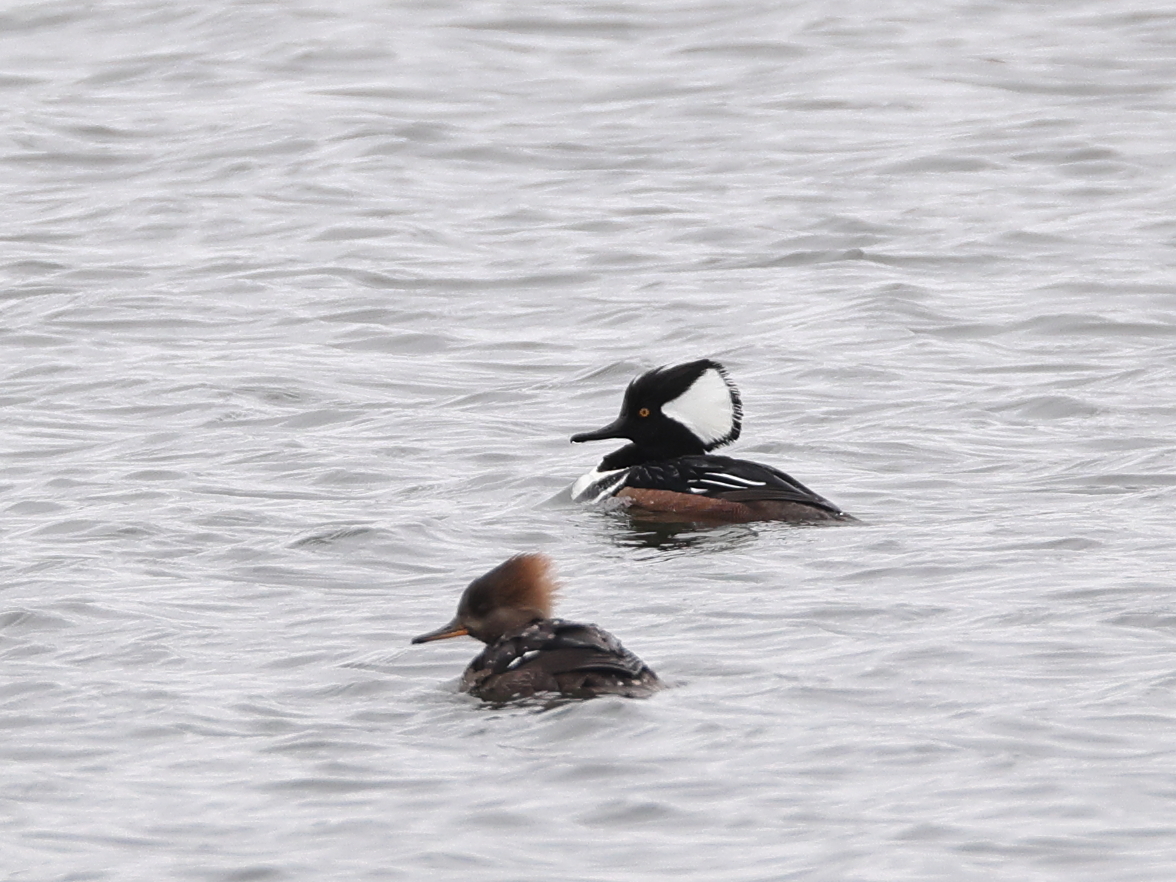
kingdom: Animalia
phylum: Chordata
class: Aves
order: Anseriformes
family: Anatidae
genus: Lophodytes
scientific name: Lophodytes cucullatus
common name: Hooded merganser
